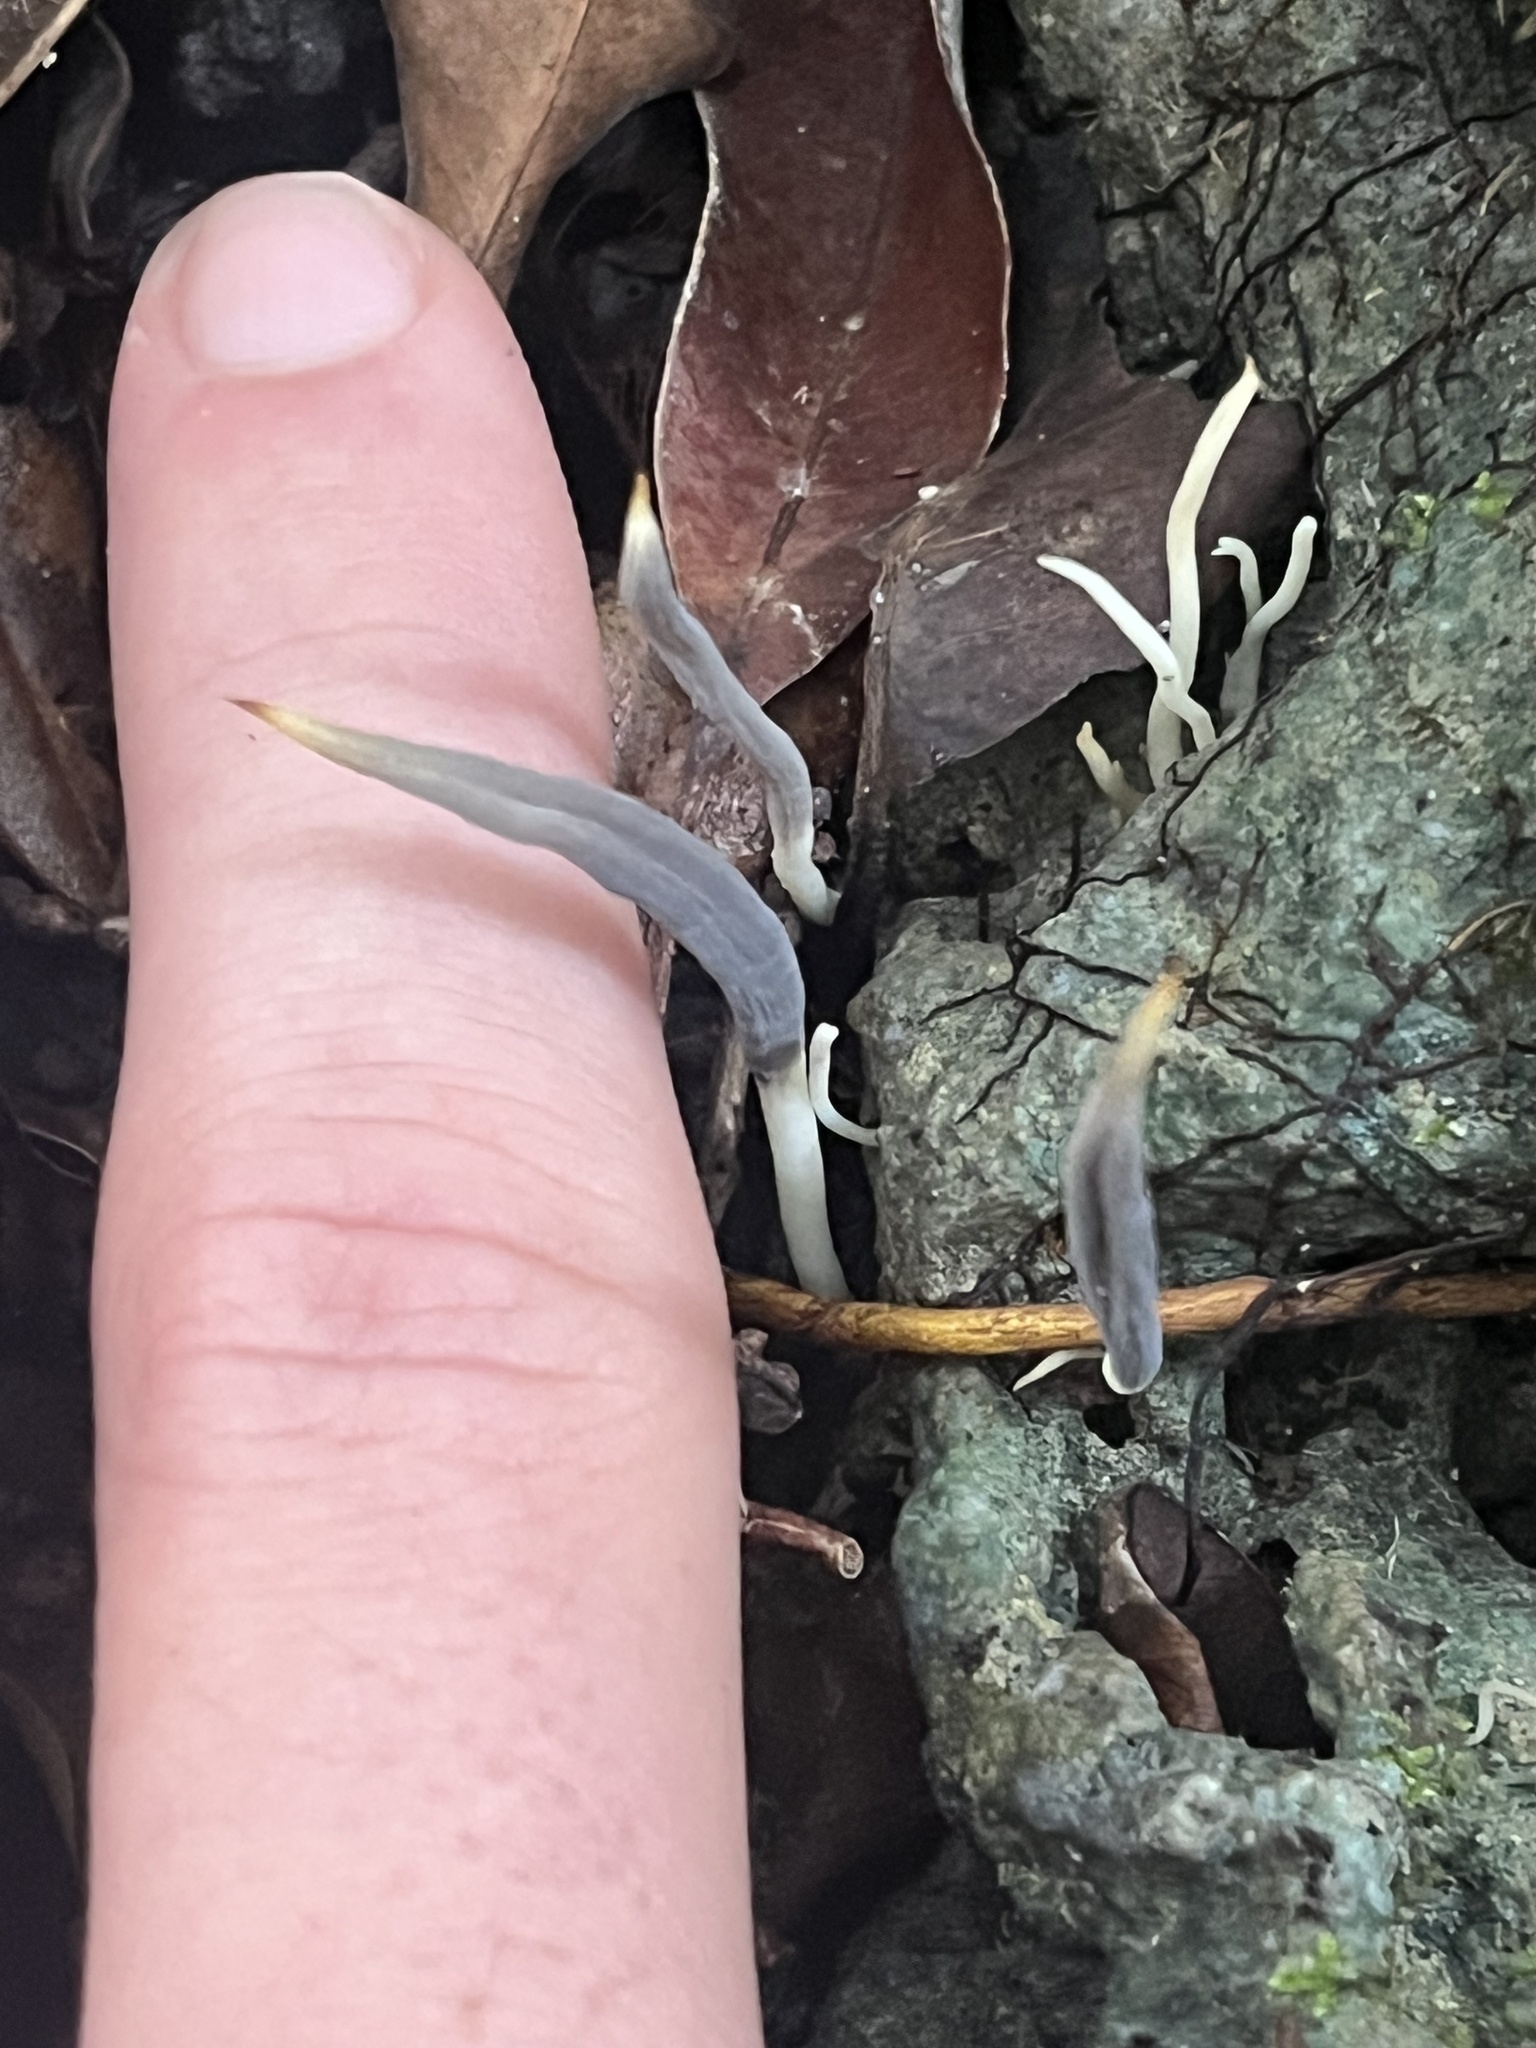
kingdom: Fungi
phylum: Basidiomycota
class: Agaricomycetes
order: Cantharellales
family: Hydnaceae
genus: Clavulina
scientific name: Clavulina floridana
